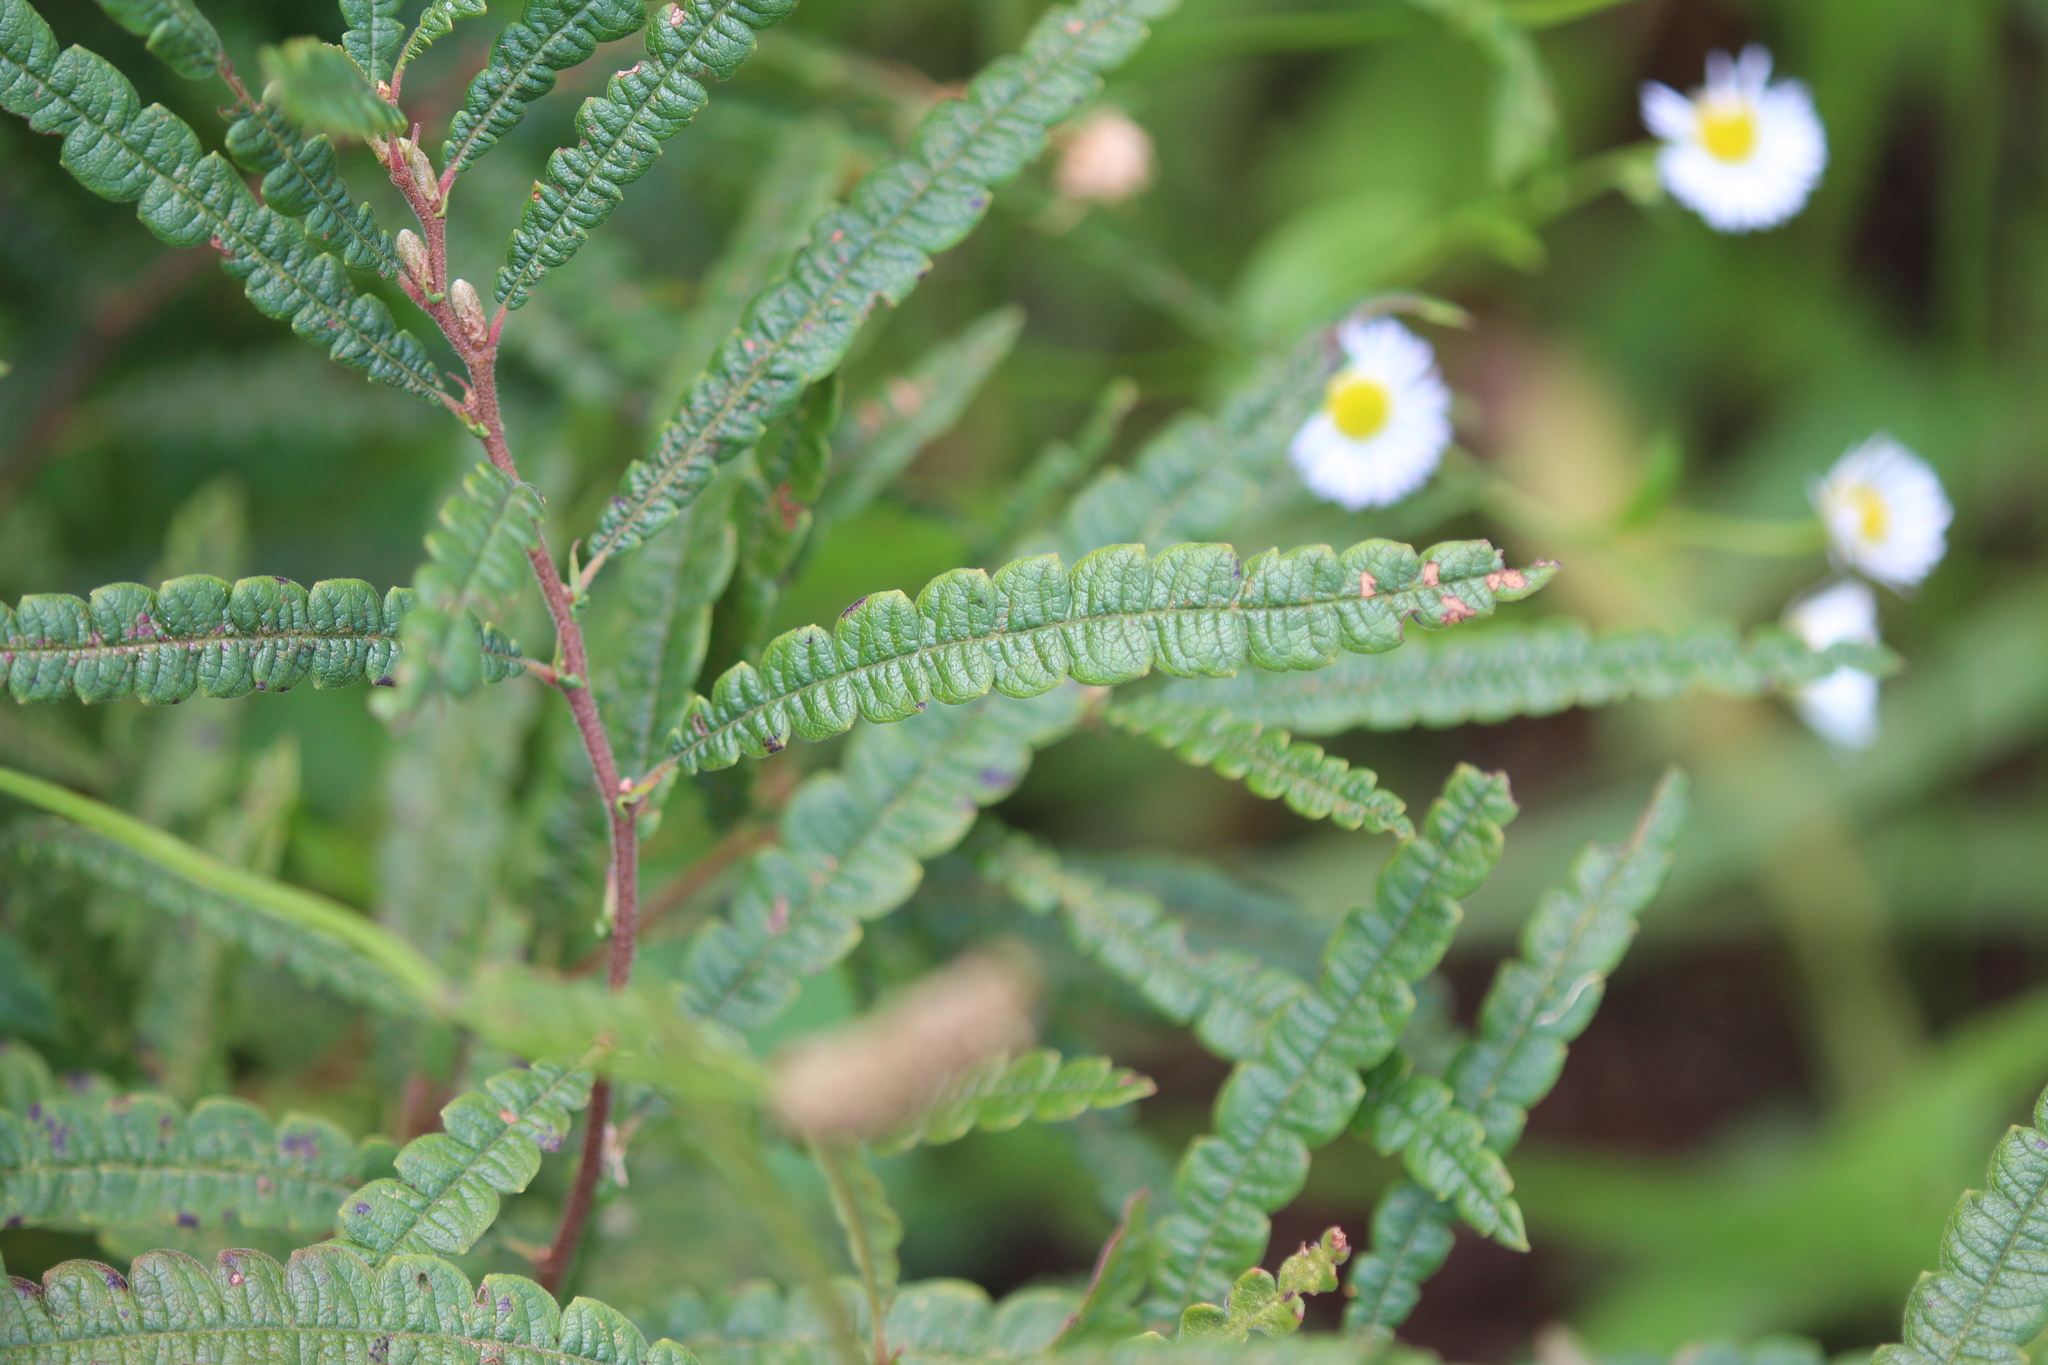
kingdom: Plantae
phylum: Tracheophyta
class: Magnoliopsida
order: Fagales
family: Myricaceae
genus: Comptonia
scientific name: Comptonia peregrina
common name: Sweet-fern
